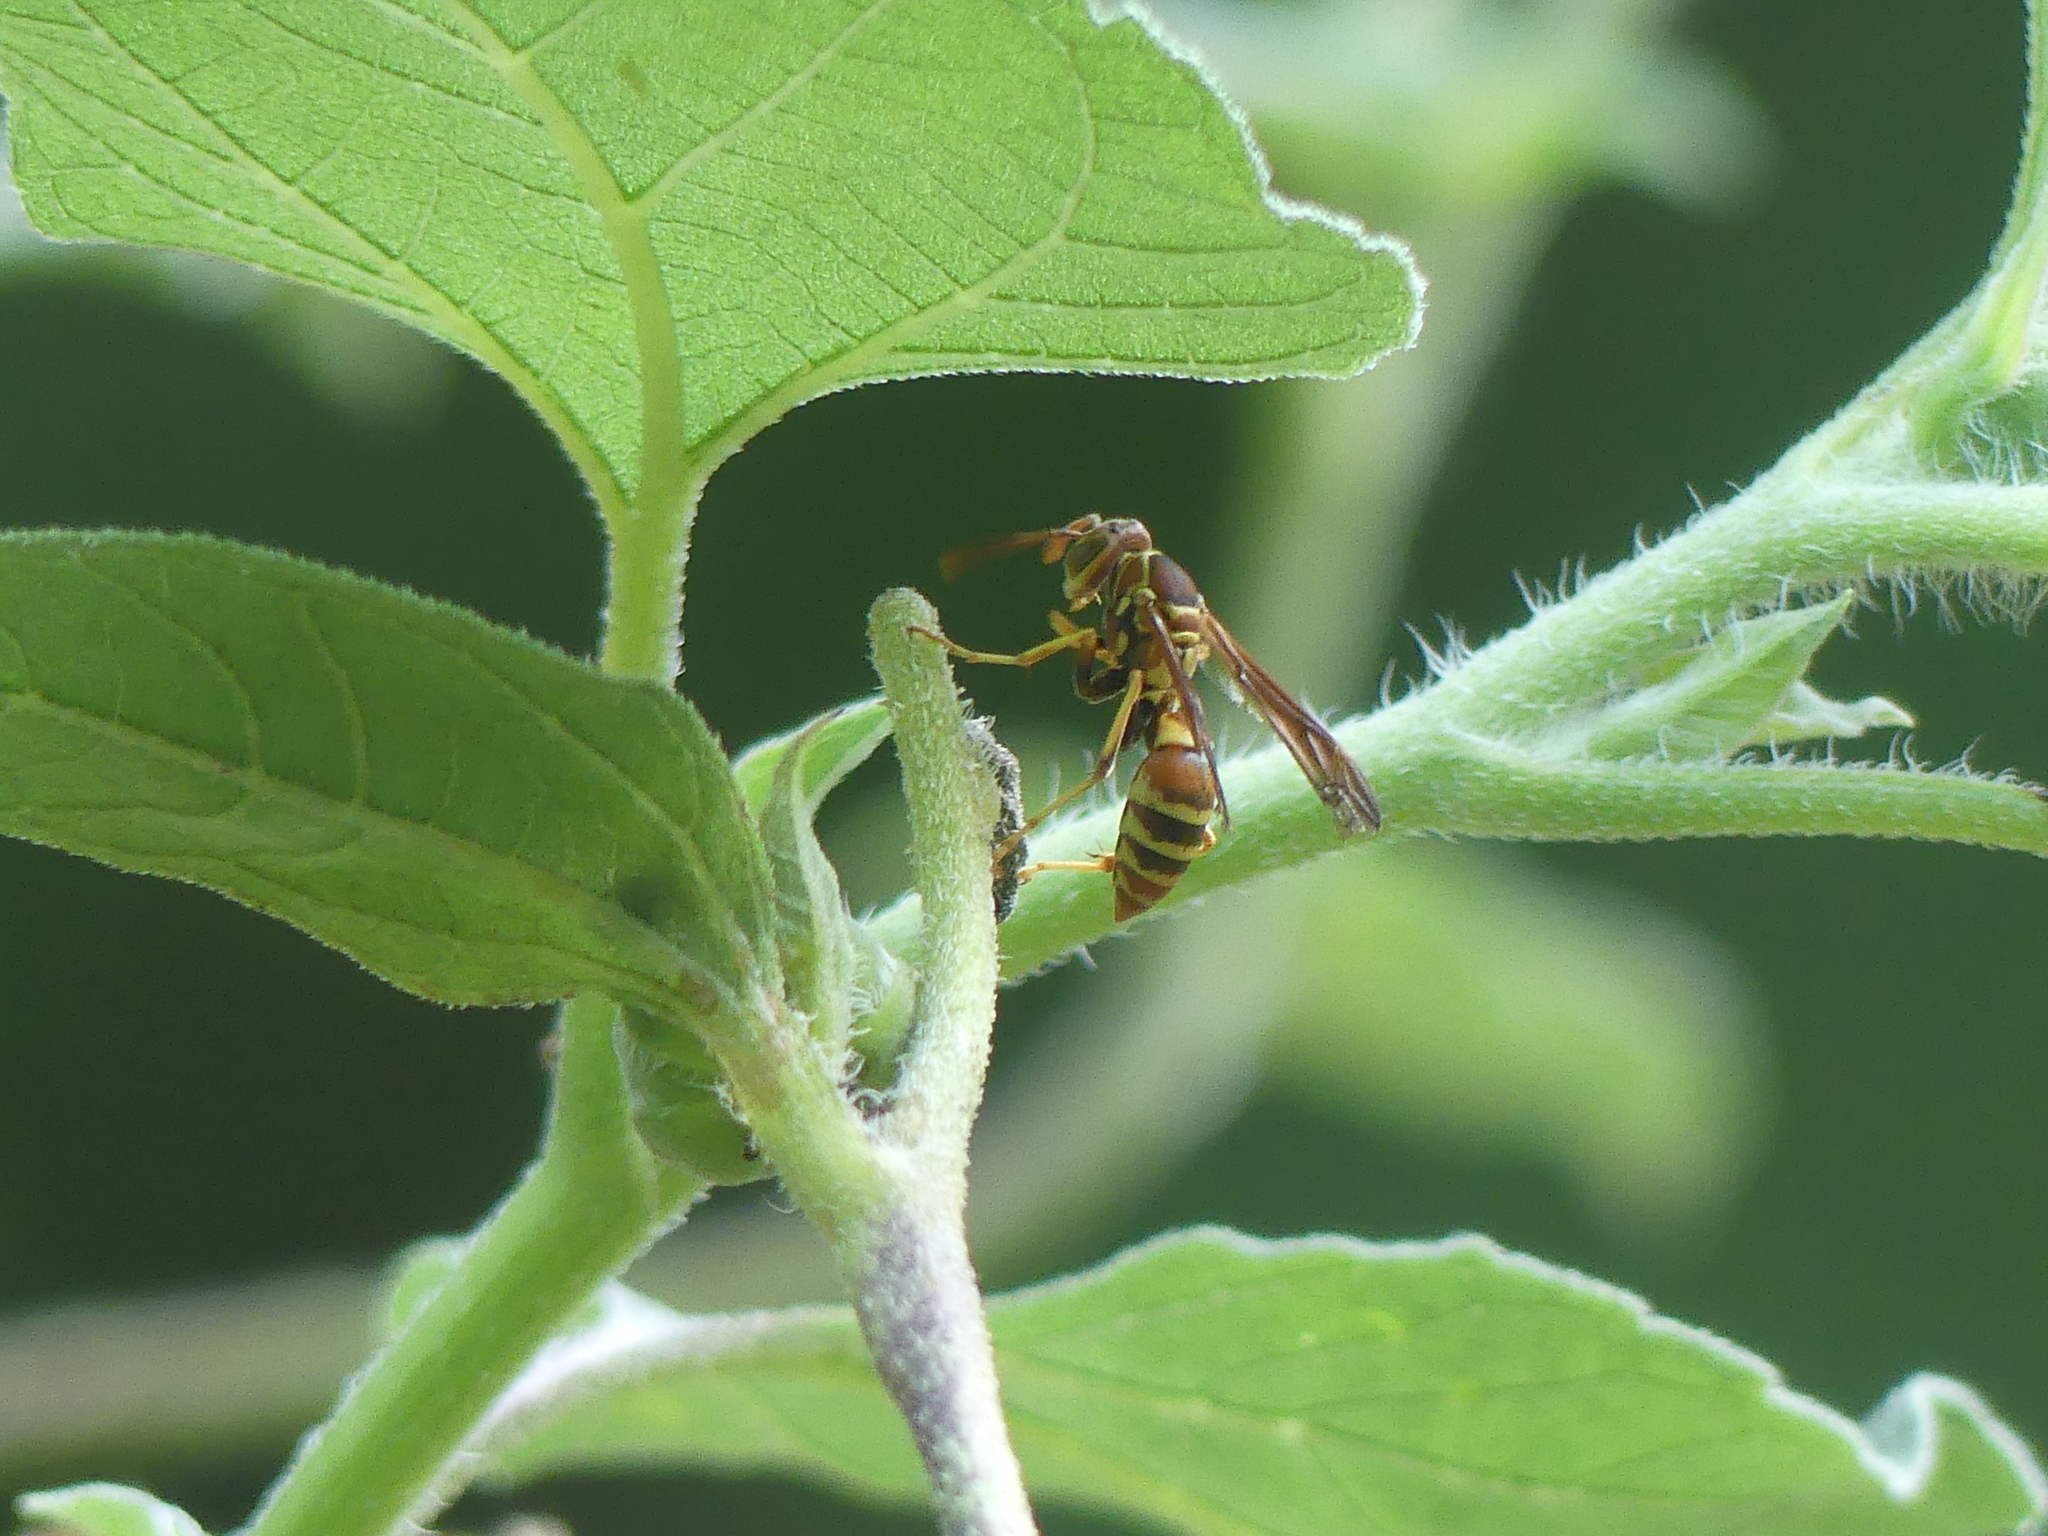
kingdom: Animalia
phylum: Arthropoda
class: Insecta
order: Hymenoptera
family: Eumenidae
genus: Polistes
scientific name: Polistes dorsalis
